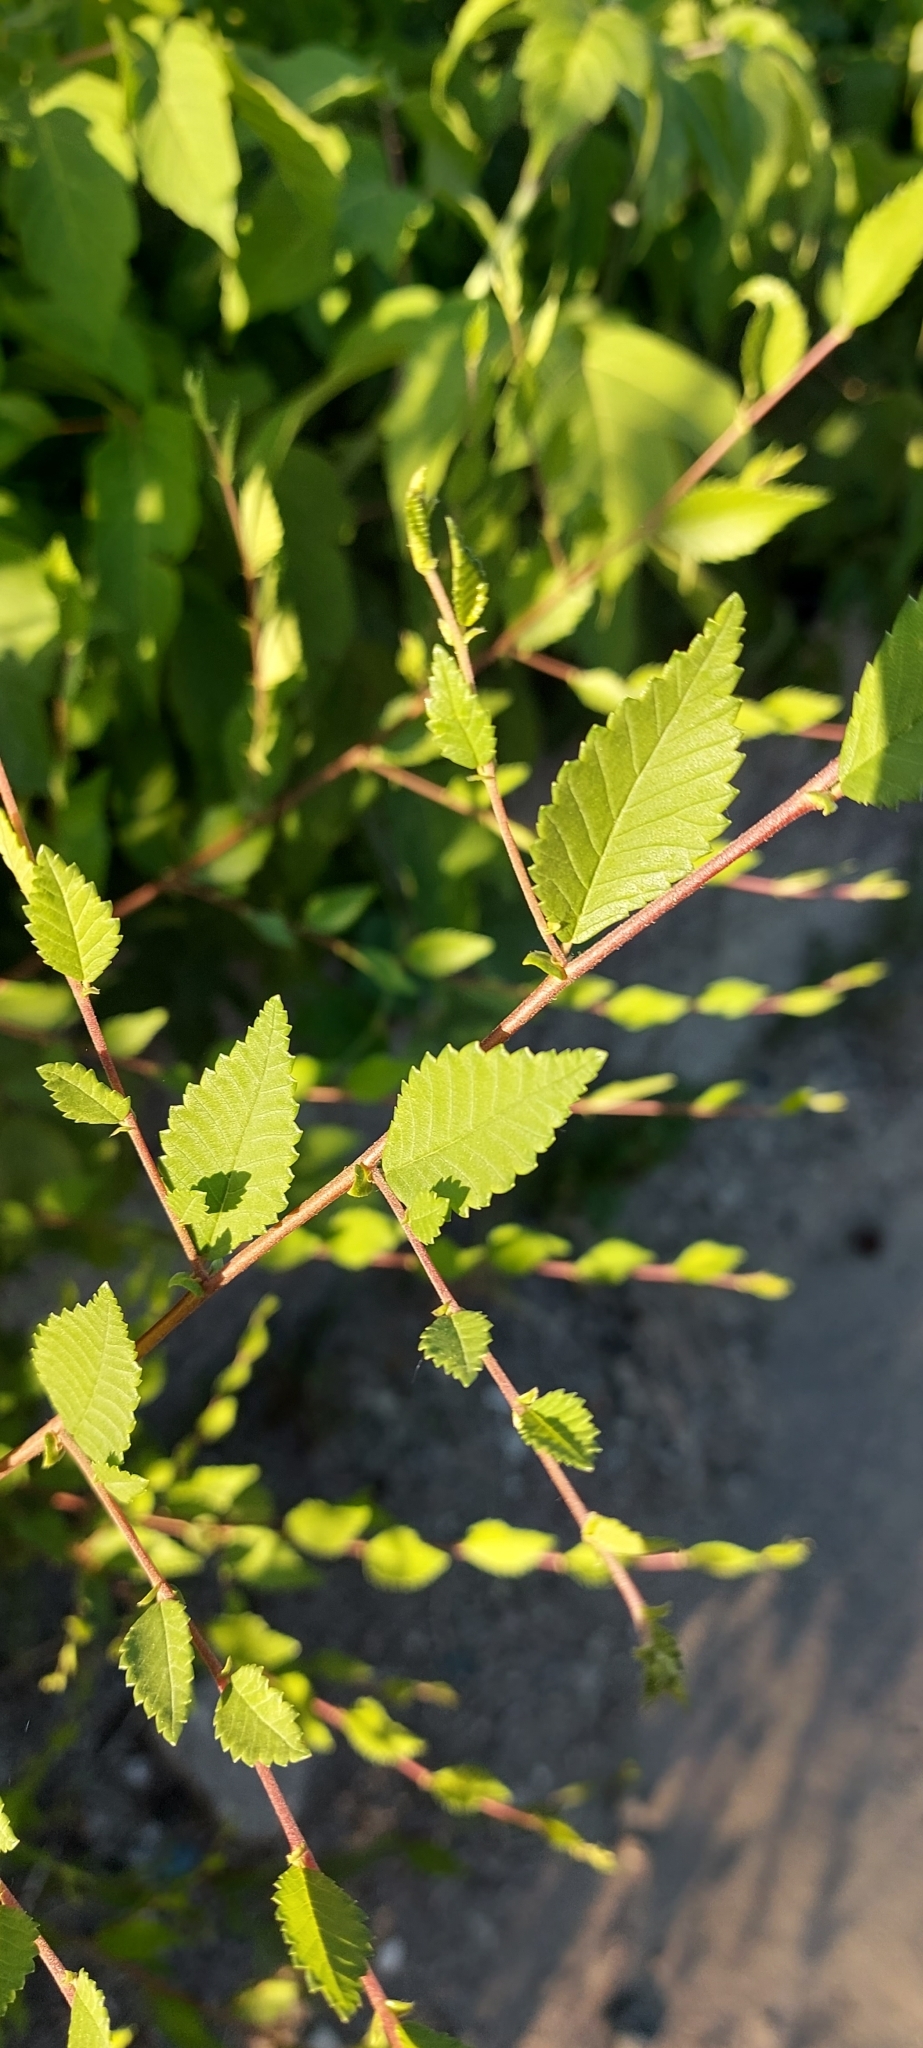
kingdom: Plantae
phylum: Tracheophyta
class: Magnoliopsida
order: Rosales
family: Ulmaceae
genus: Ulmus
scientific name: Ulmus pumila
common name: Siberian elm
